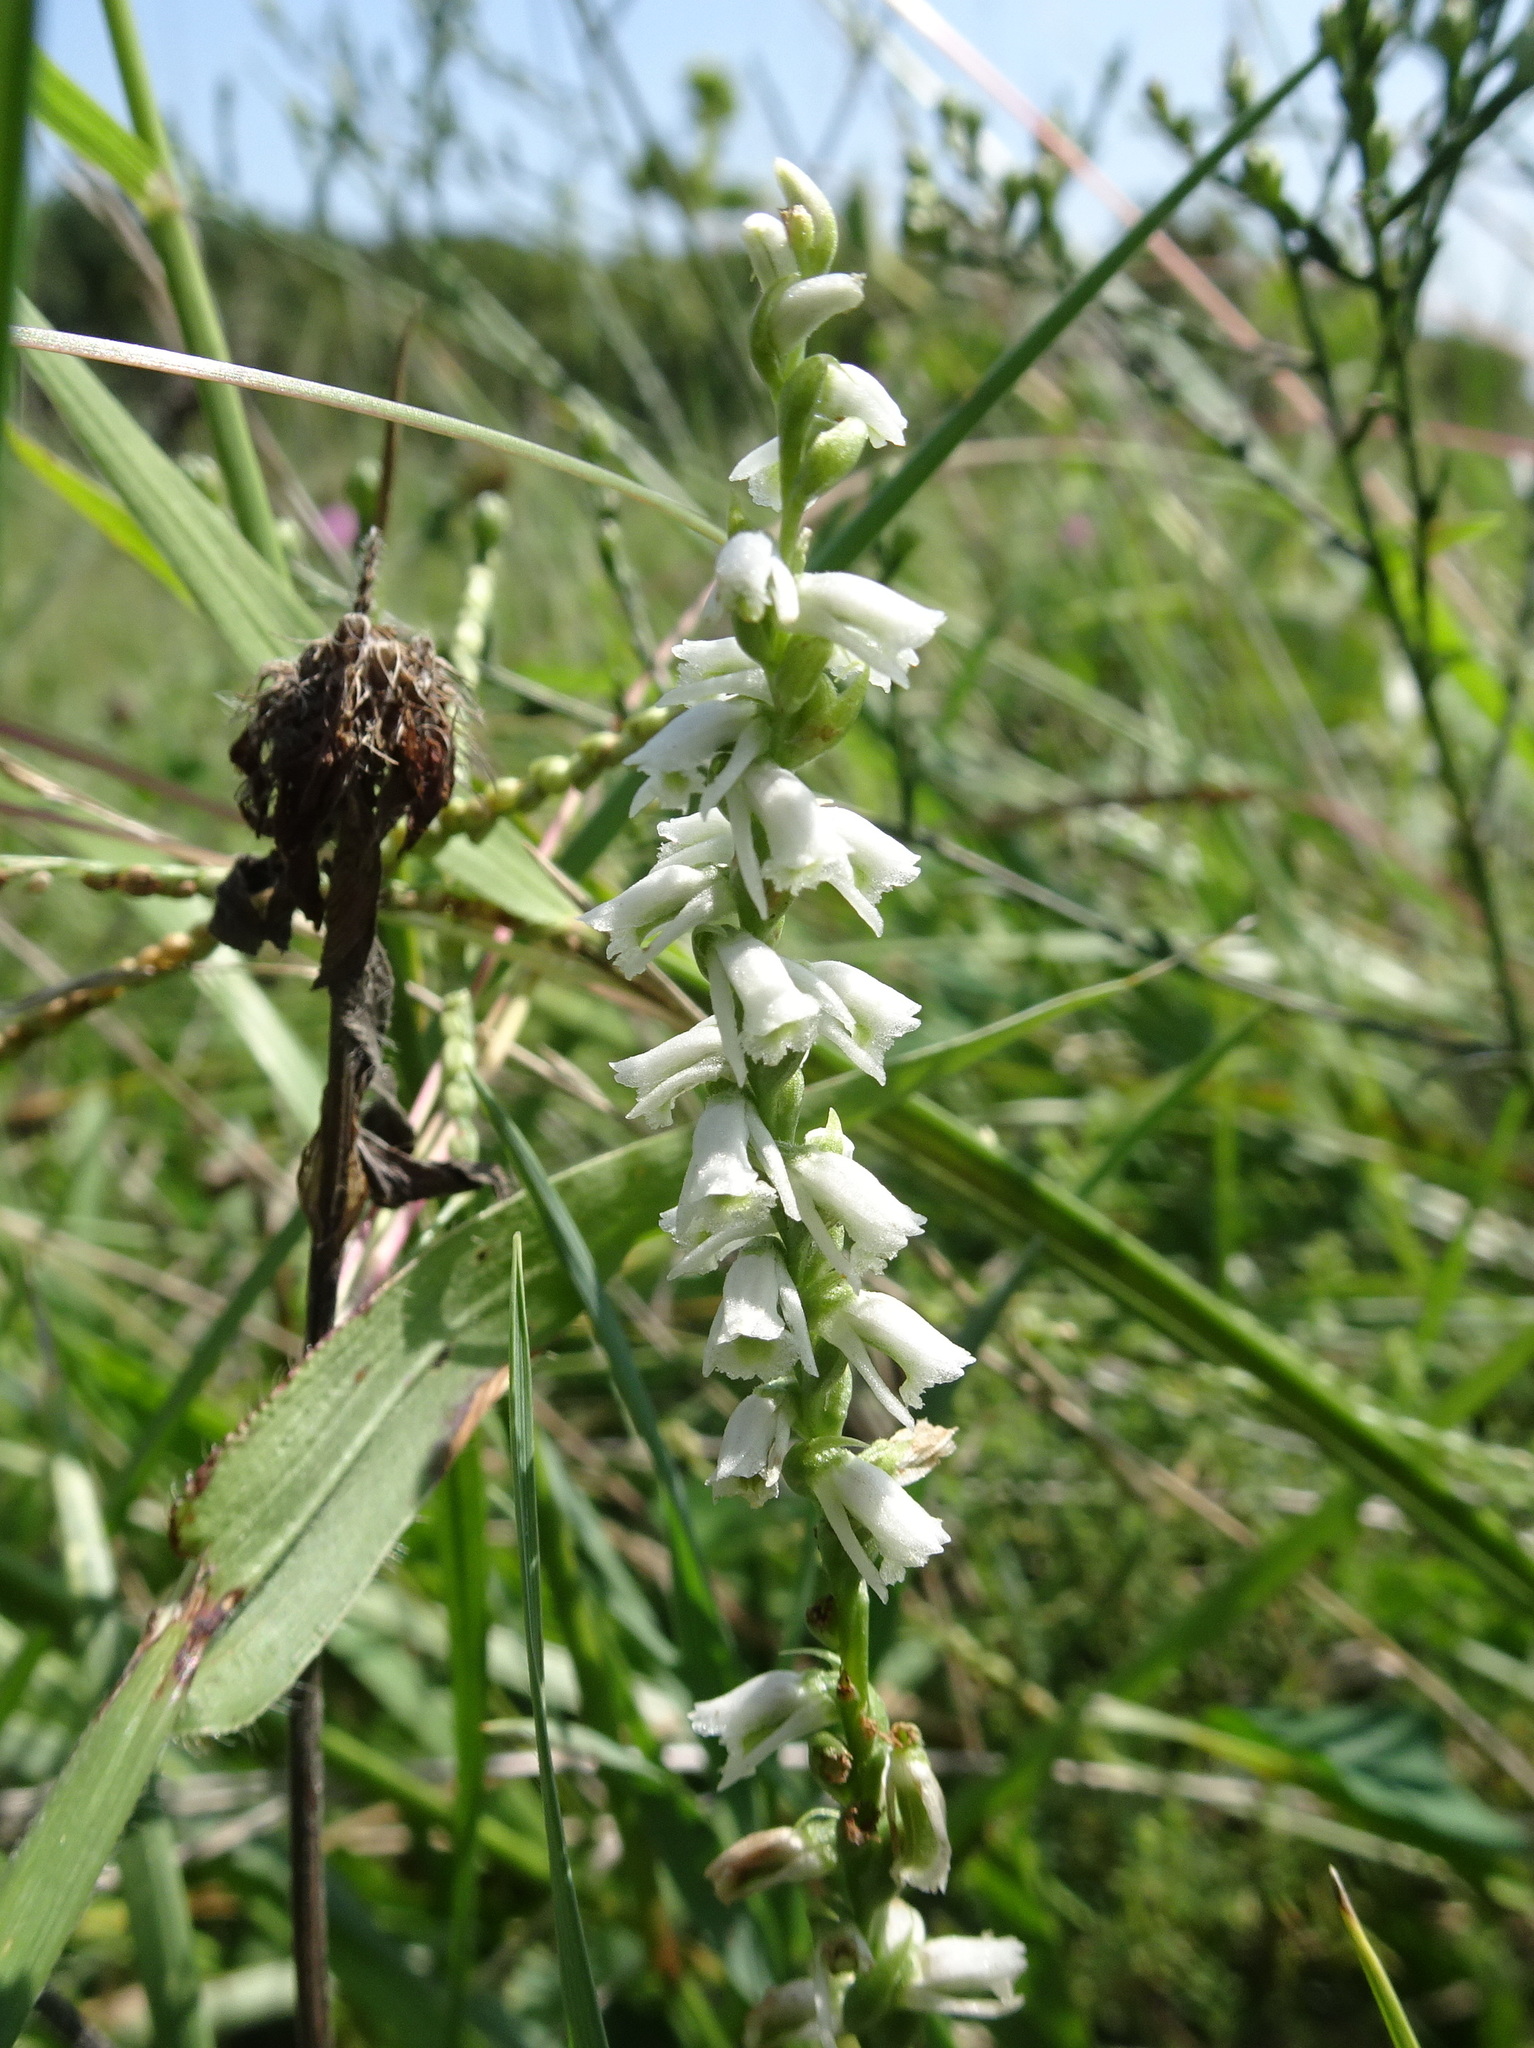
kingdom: Plantae
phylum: Tracheophyta
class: Liliopsida
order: Asparagales
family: Orchidaceae
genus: Spiranthes
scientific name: Spiranthes lacera
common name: Northern slender ladies'-tresses
